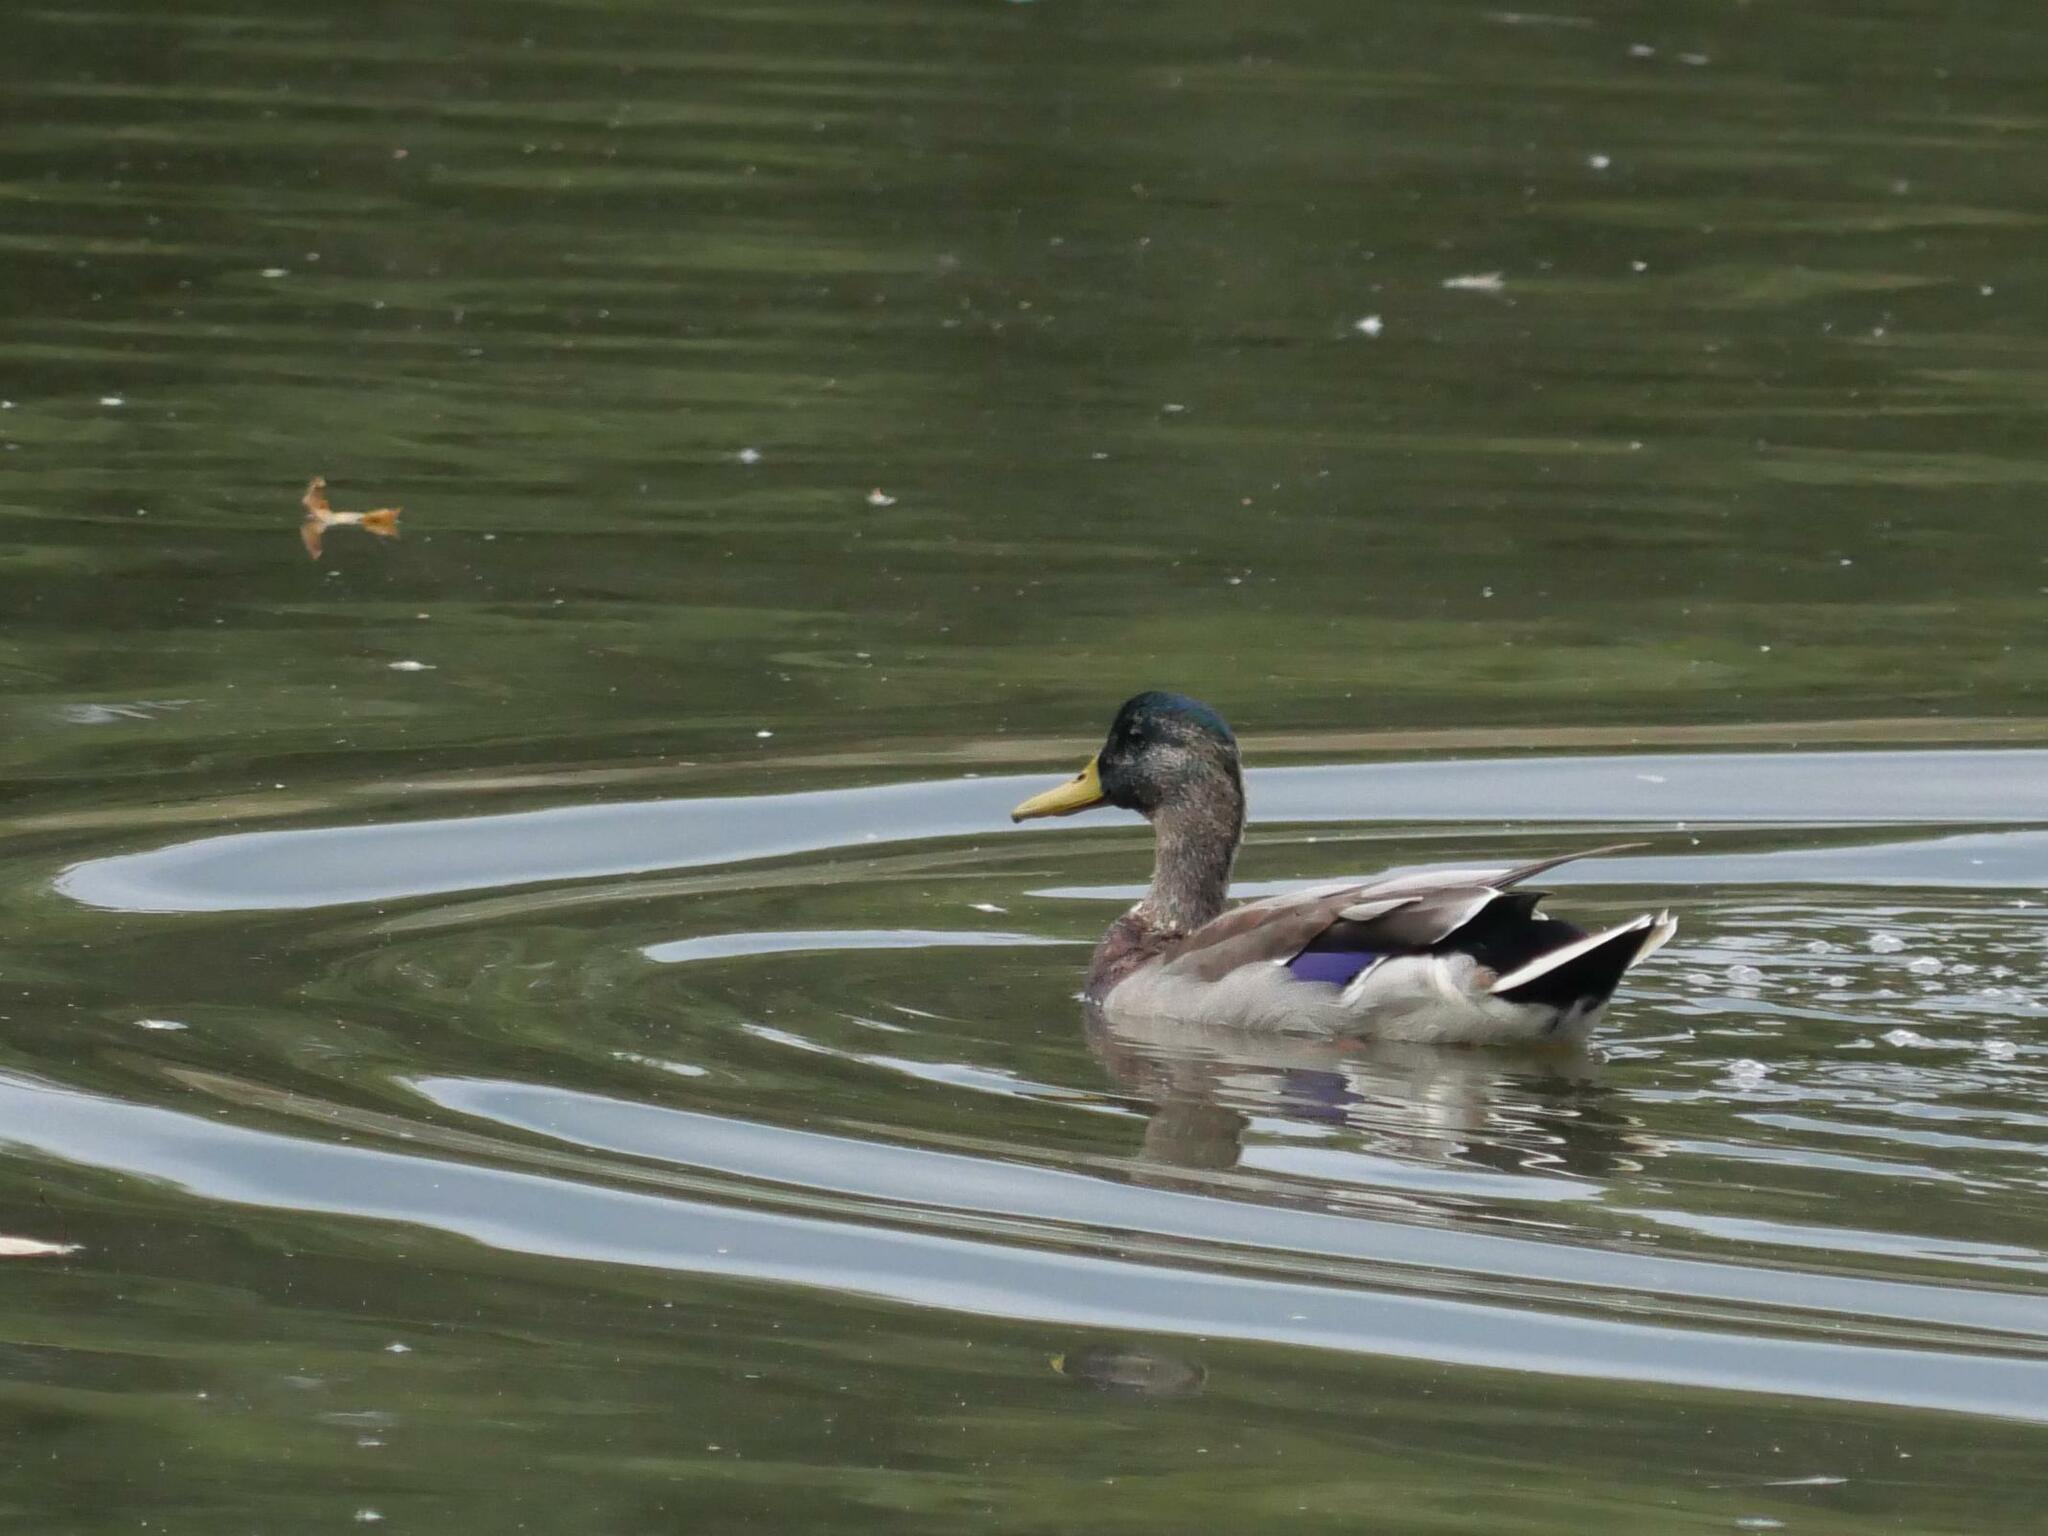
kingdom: Animalia
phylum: Chordata
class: Aves
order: Anseriformes
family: Anatidae
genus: Anas
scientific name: Anas platyrhynchos
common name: Mallard
